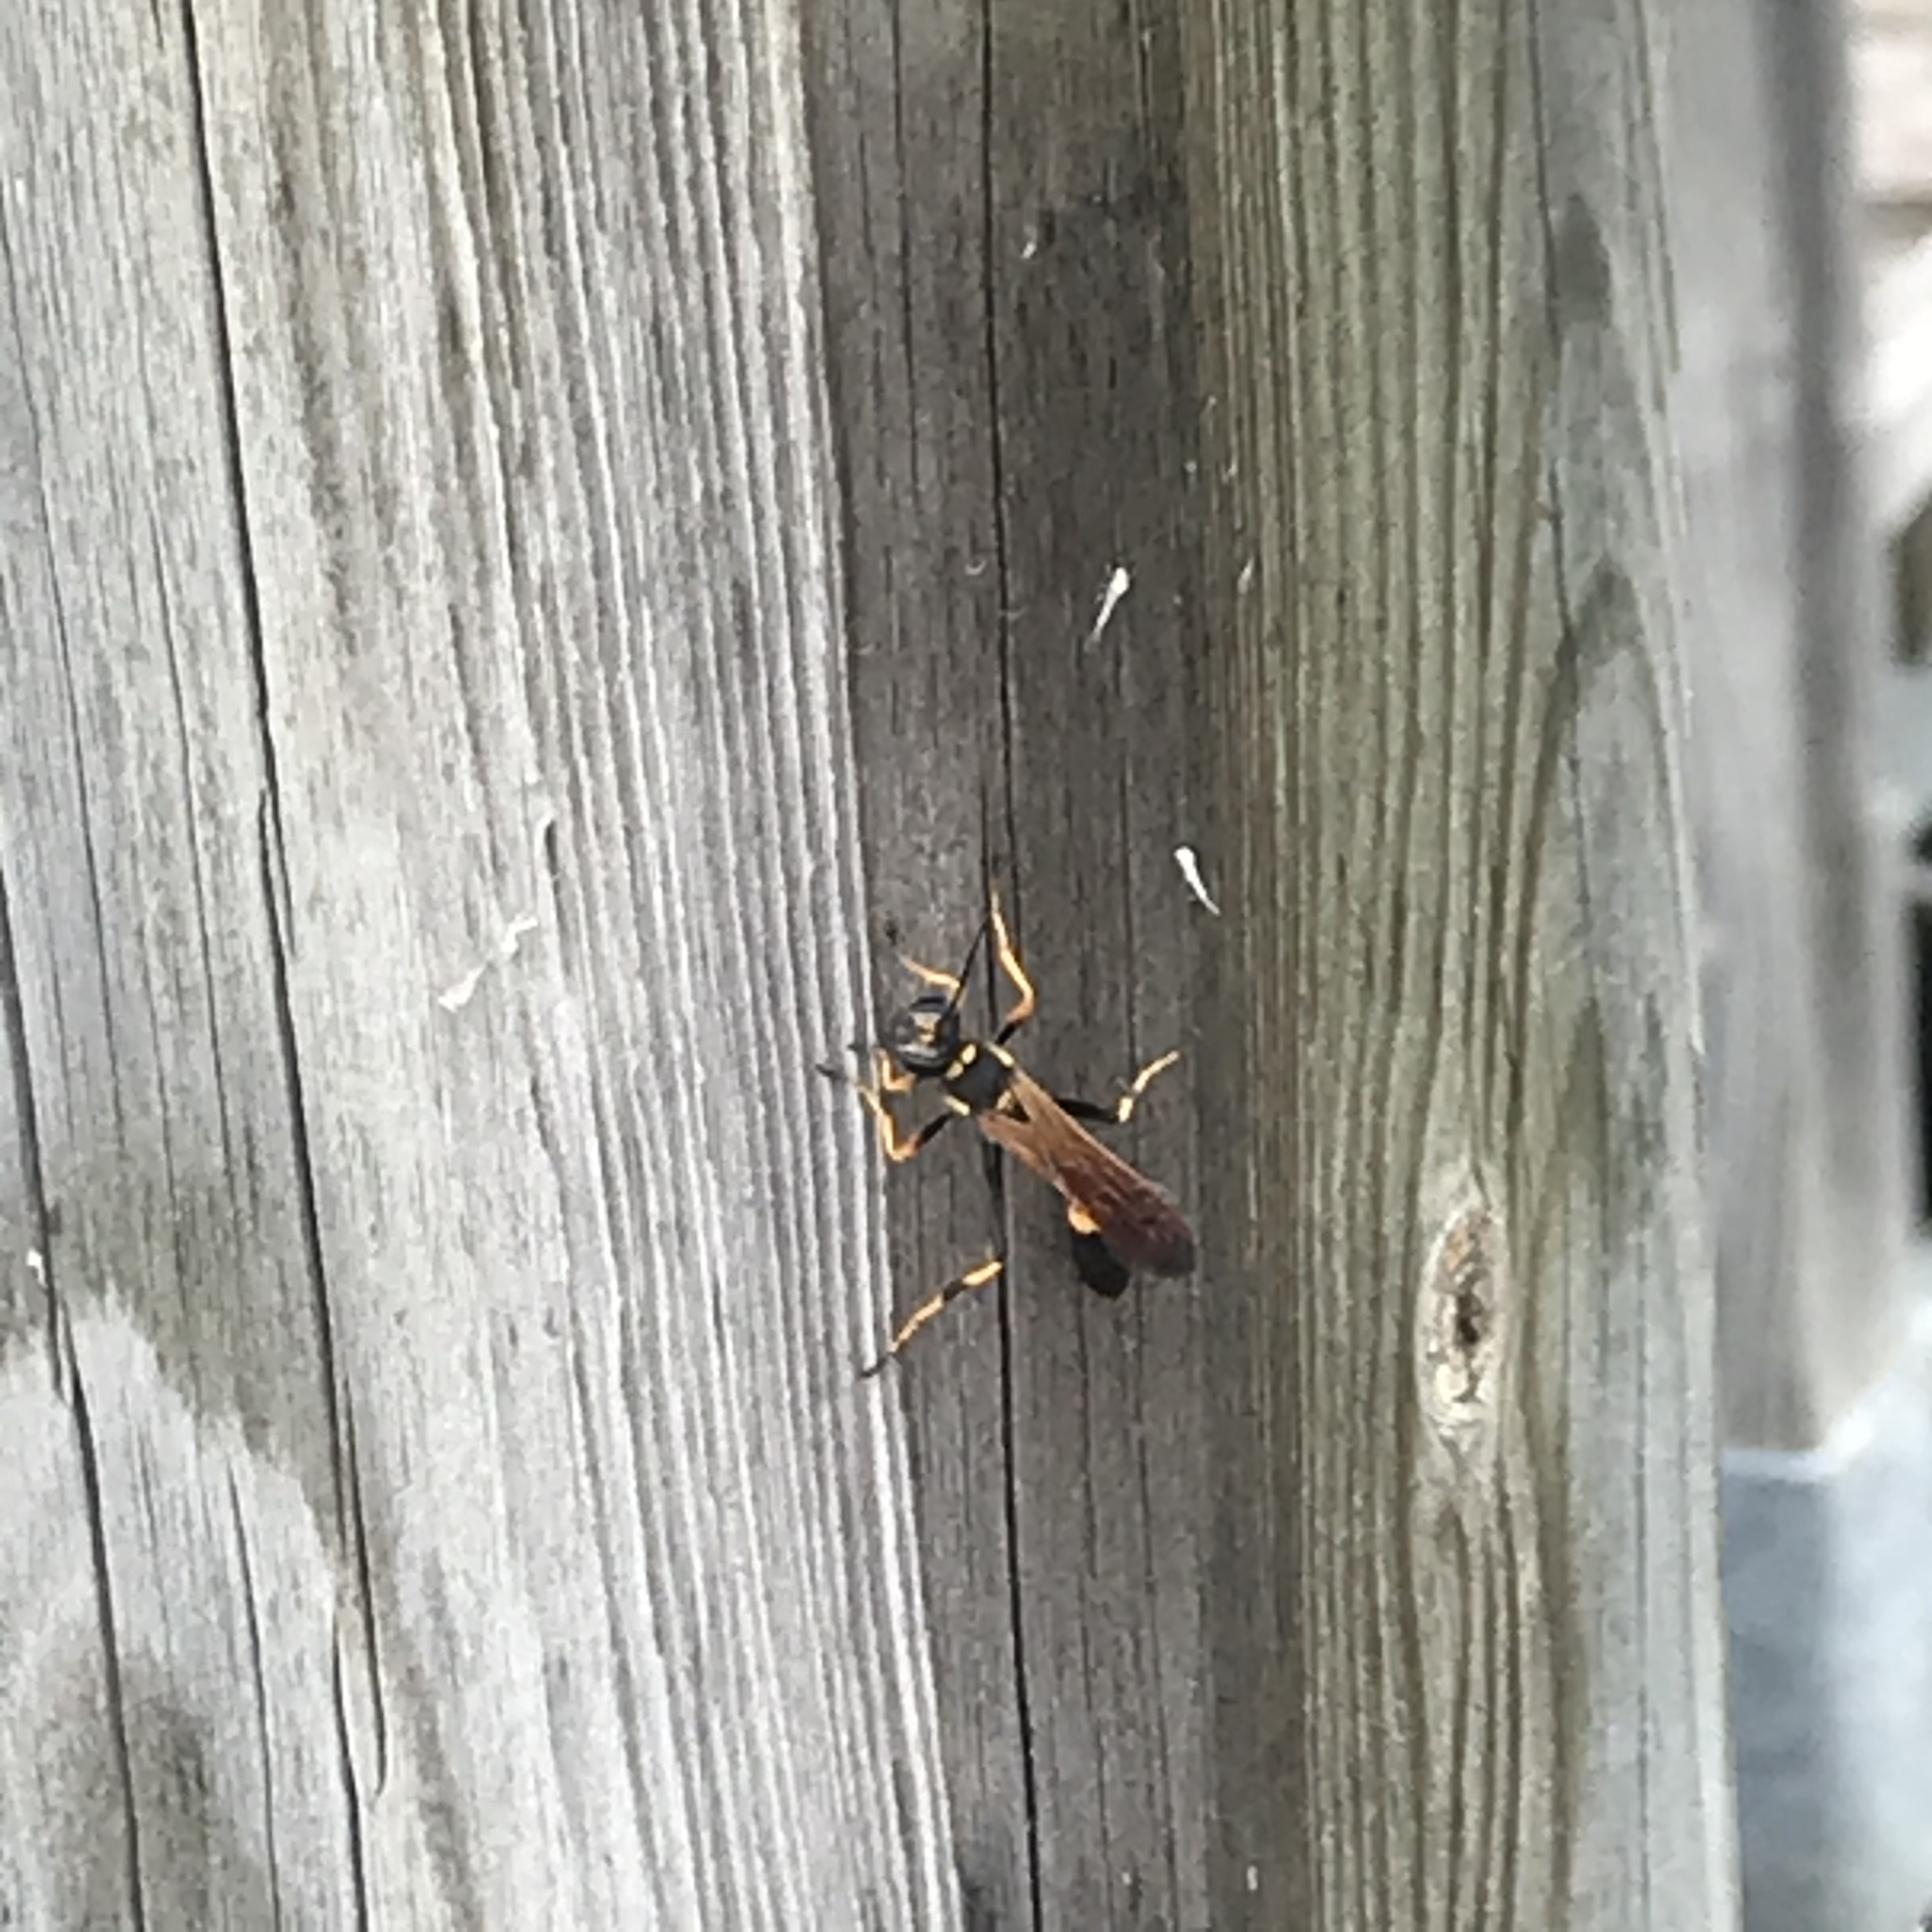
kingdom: Animalia
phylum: Arthropoda
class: Insecta
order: Hymenoptera
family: Sphecidae
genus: Sceliphron
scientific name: Sceliphron caementarium
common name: Mud dauber
